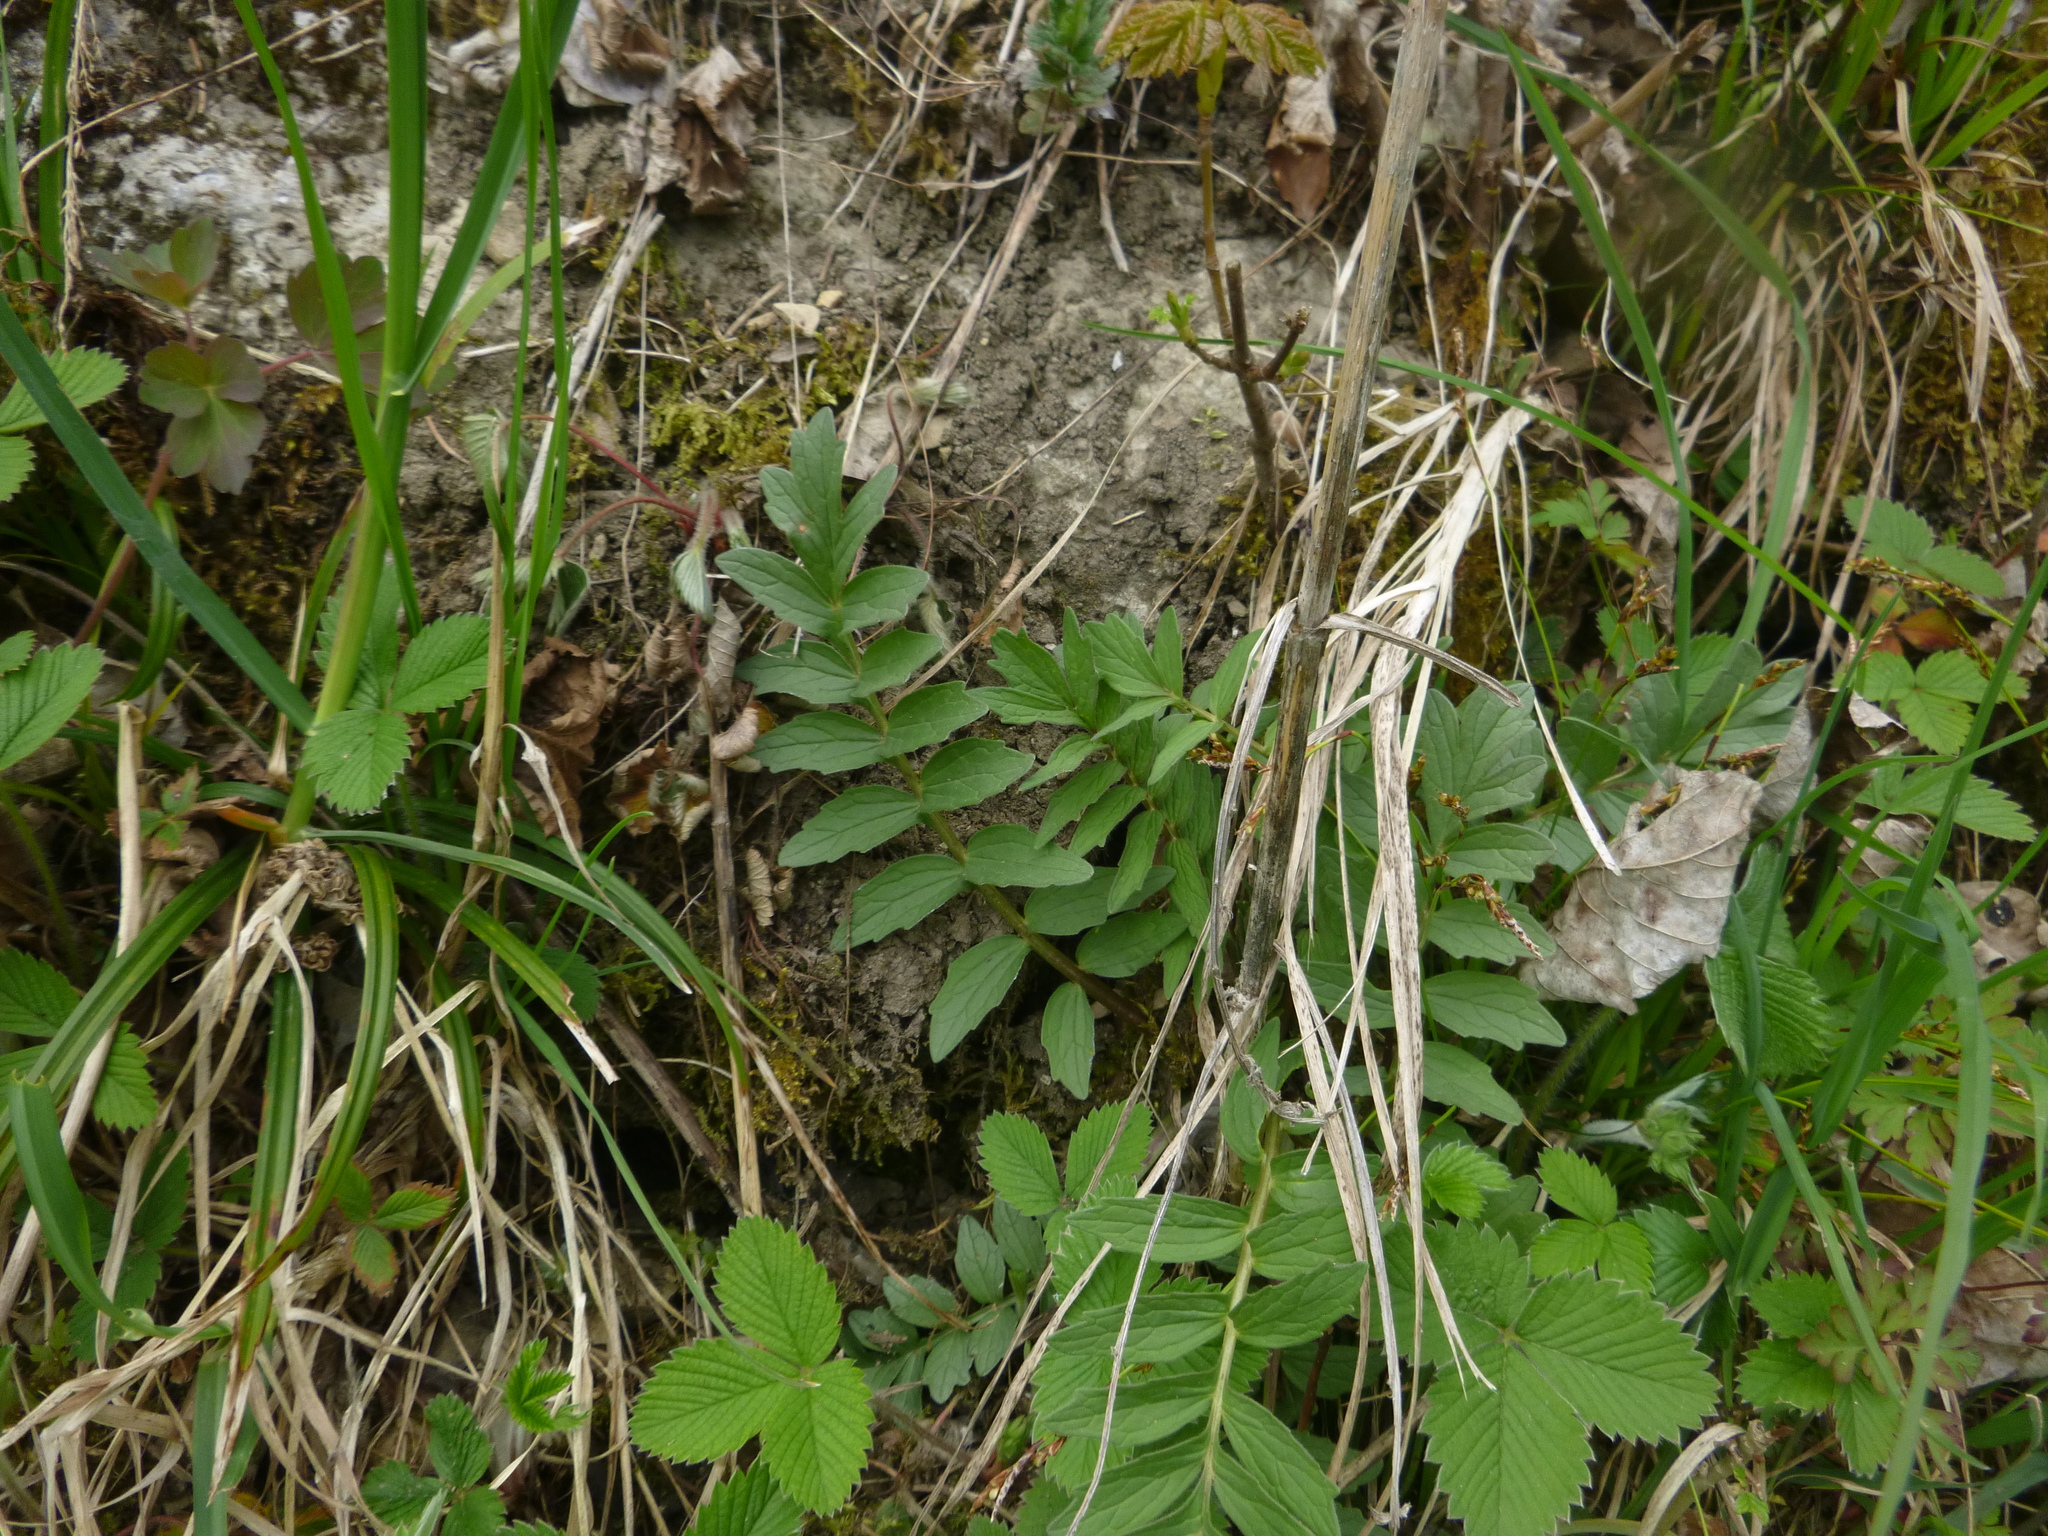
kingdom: Plantae
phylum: Tracheophyta
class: Magnoliopsida
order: Dipsacales
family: Caprifoliaceae
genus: Valeriana
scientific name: Valeriana officinalis
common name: Common valerian
